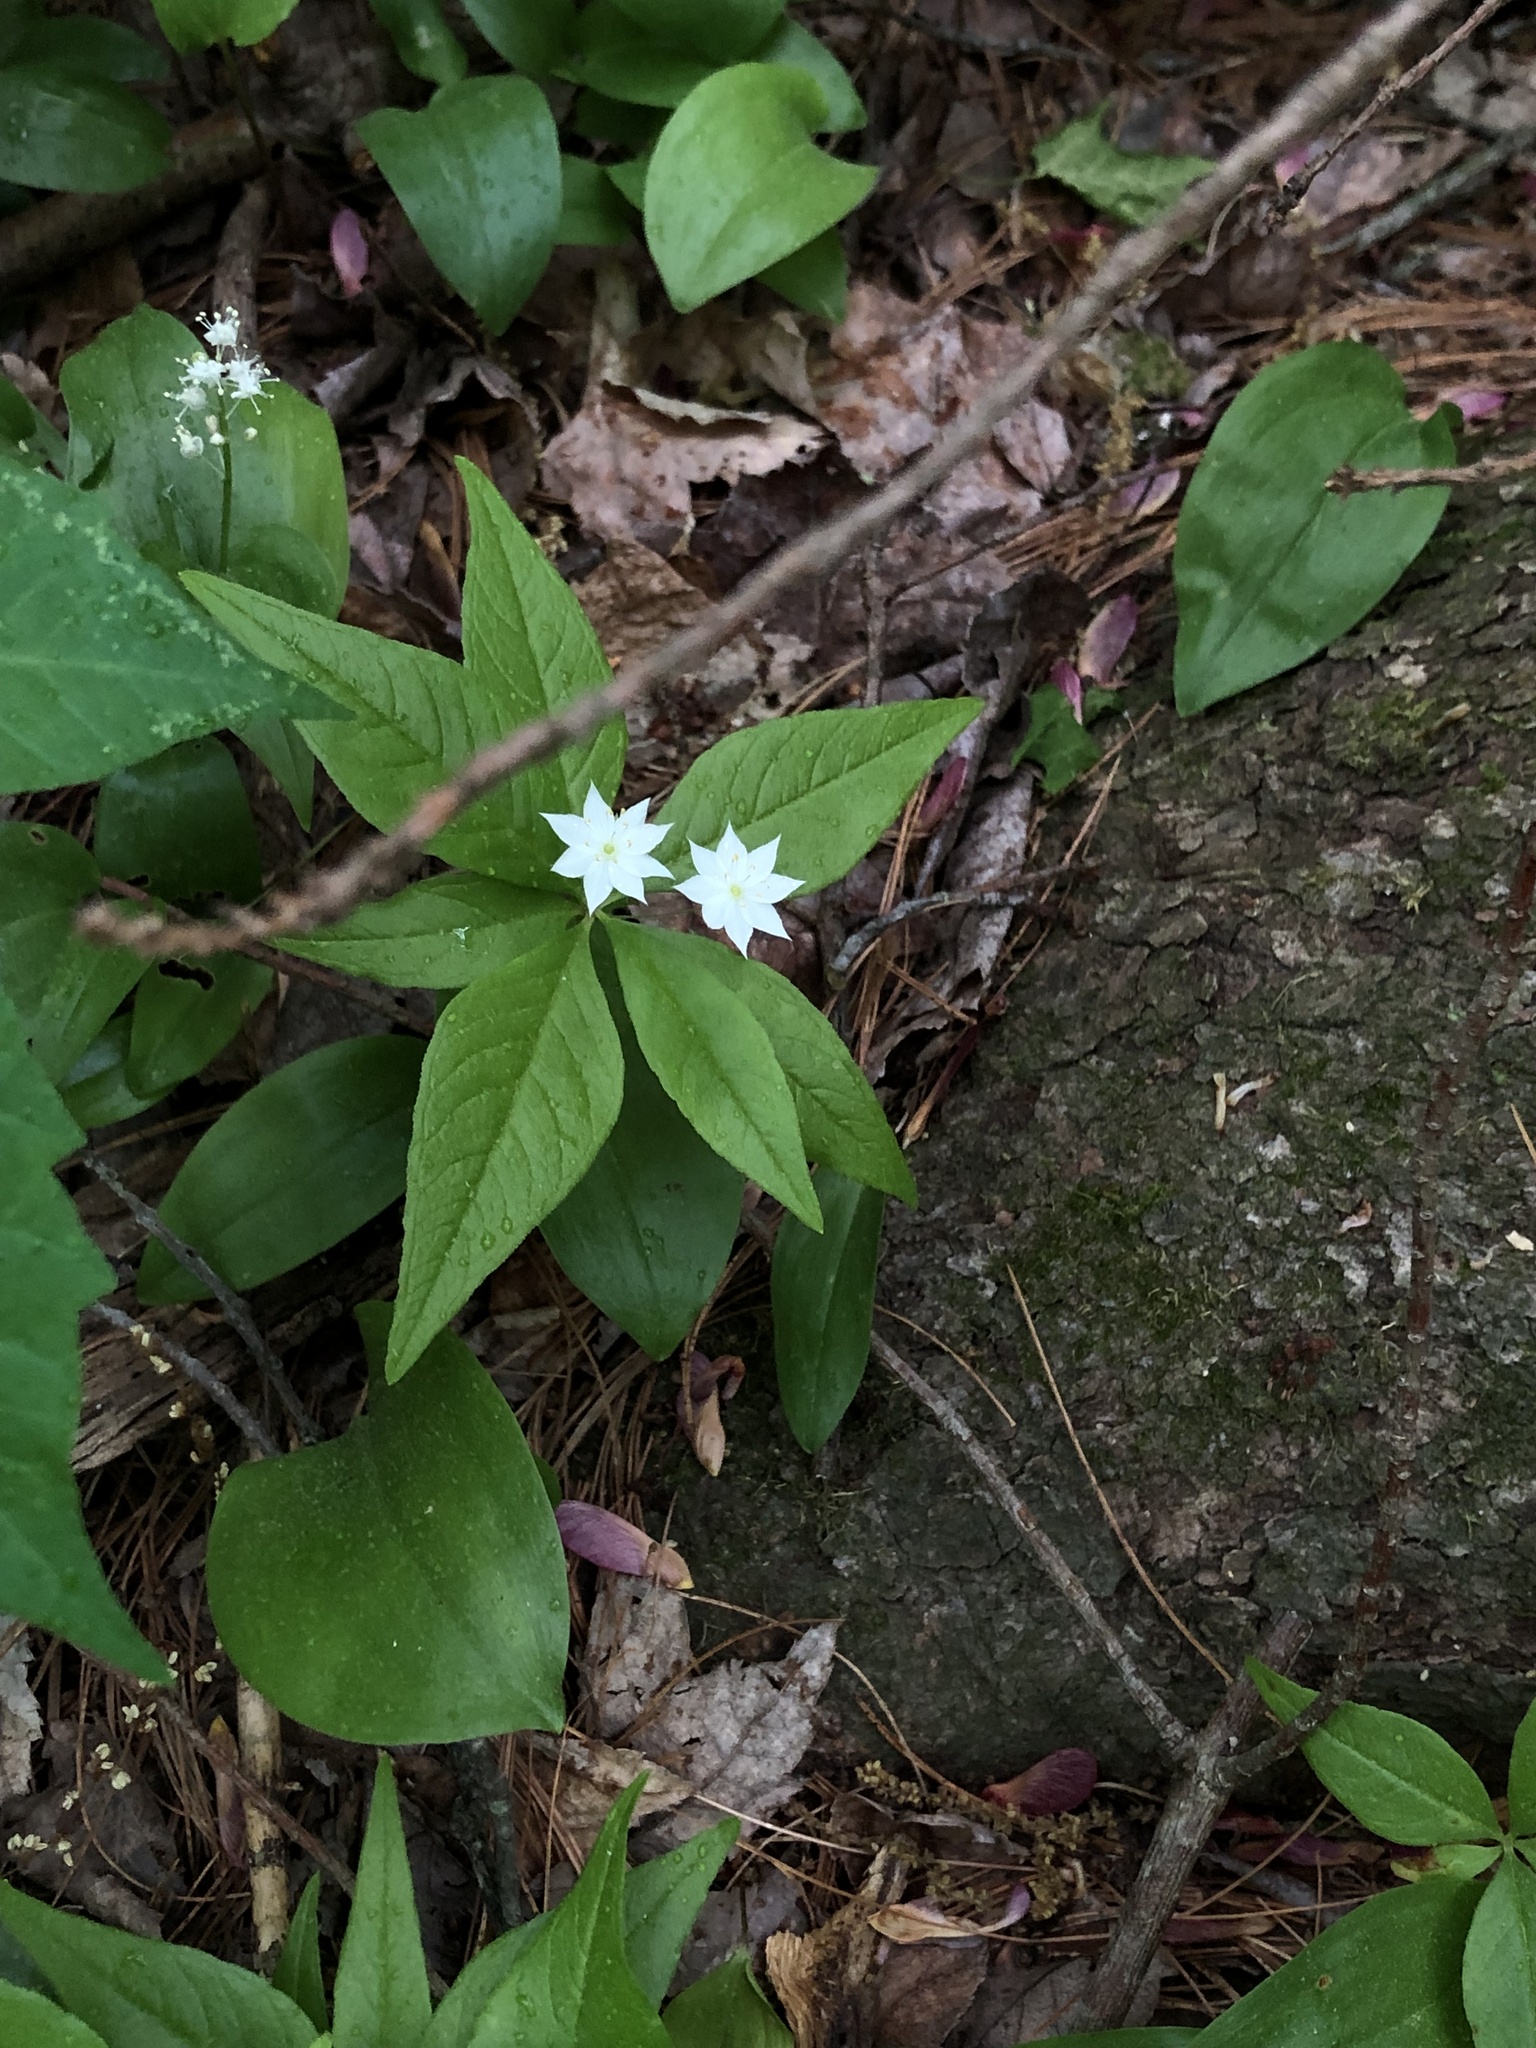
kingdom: Plantae
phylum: Tracheophyta
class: Magnoliopsida
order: Ericales
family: Primulaceae
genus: Lysimachia
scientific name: Lysimachia borealis
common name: American starflower
